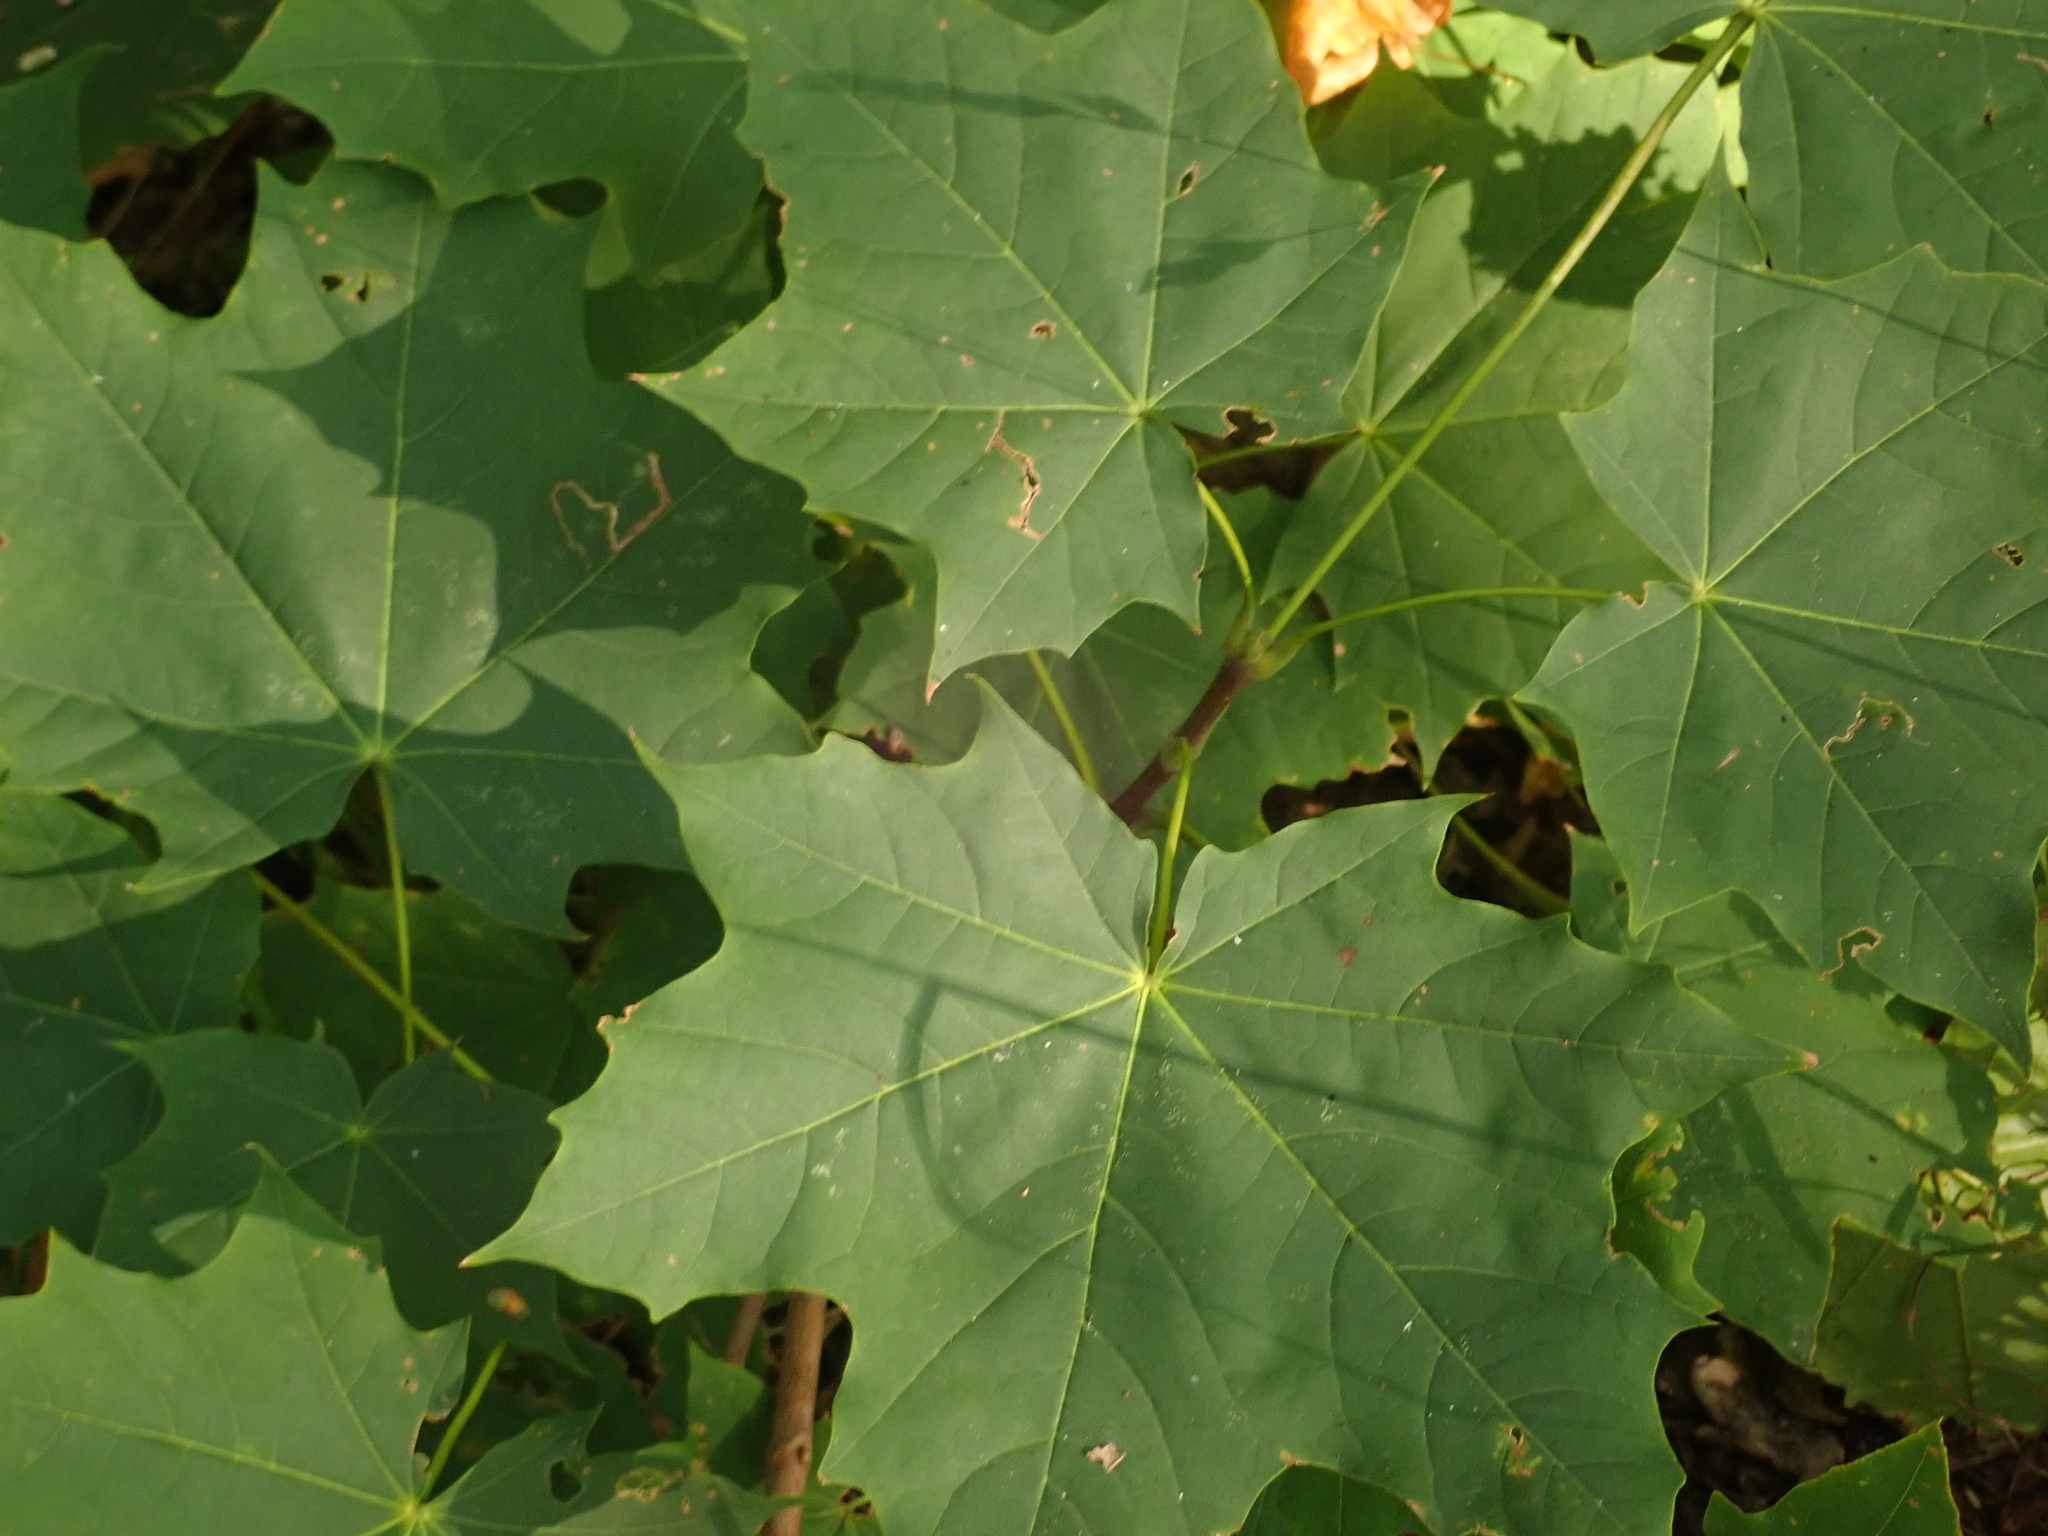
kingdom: Plantae
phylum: Tracheophyta
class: Magnoliopsida
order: Sapindales
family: Sapindaceae
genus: Acer
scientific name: Acer platanoides
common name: Norway maple
